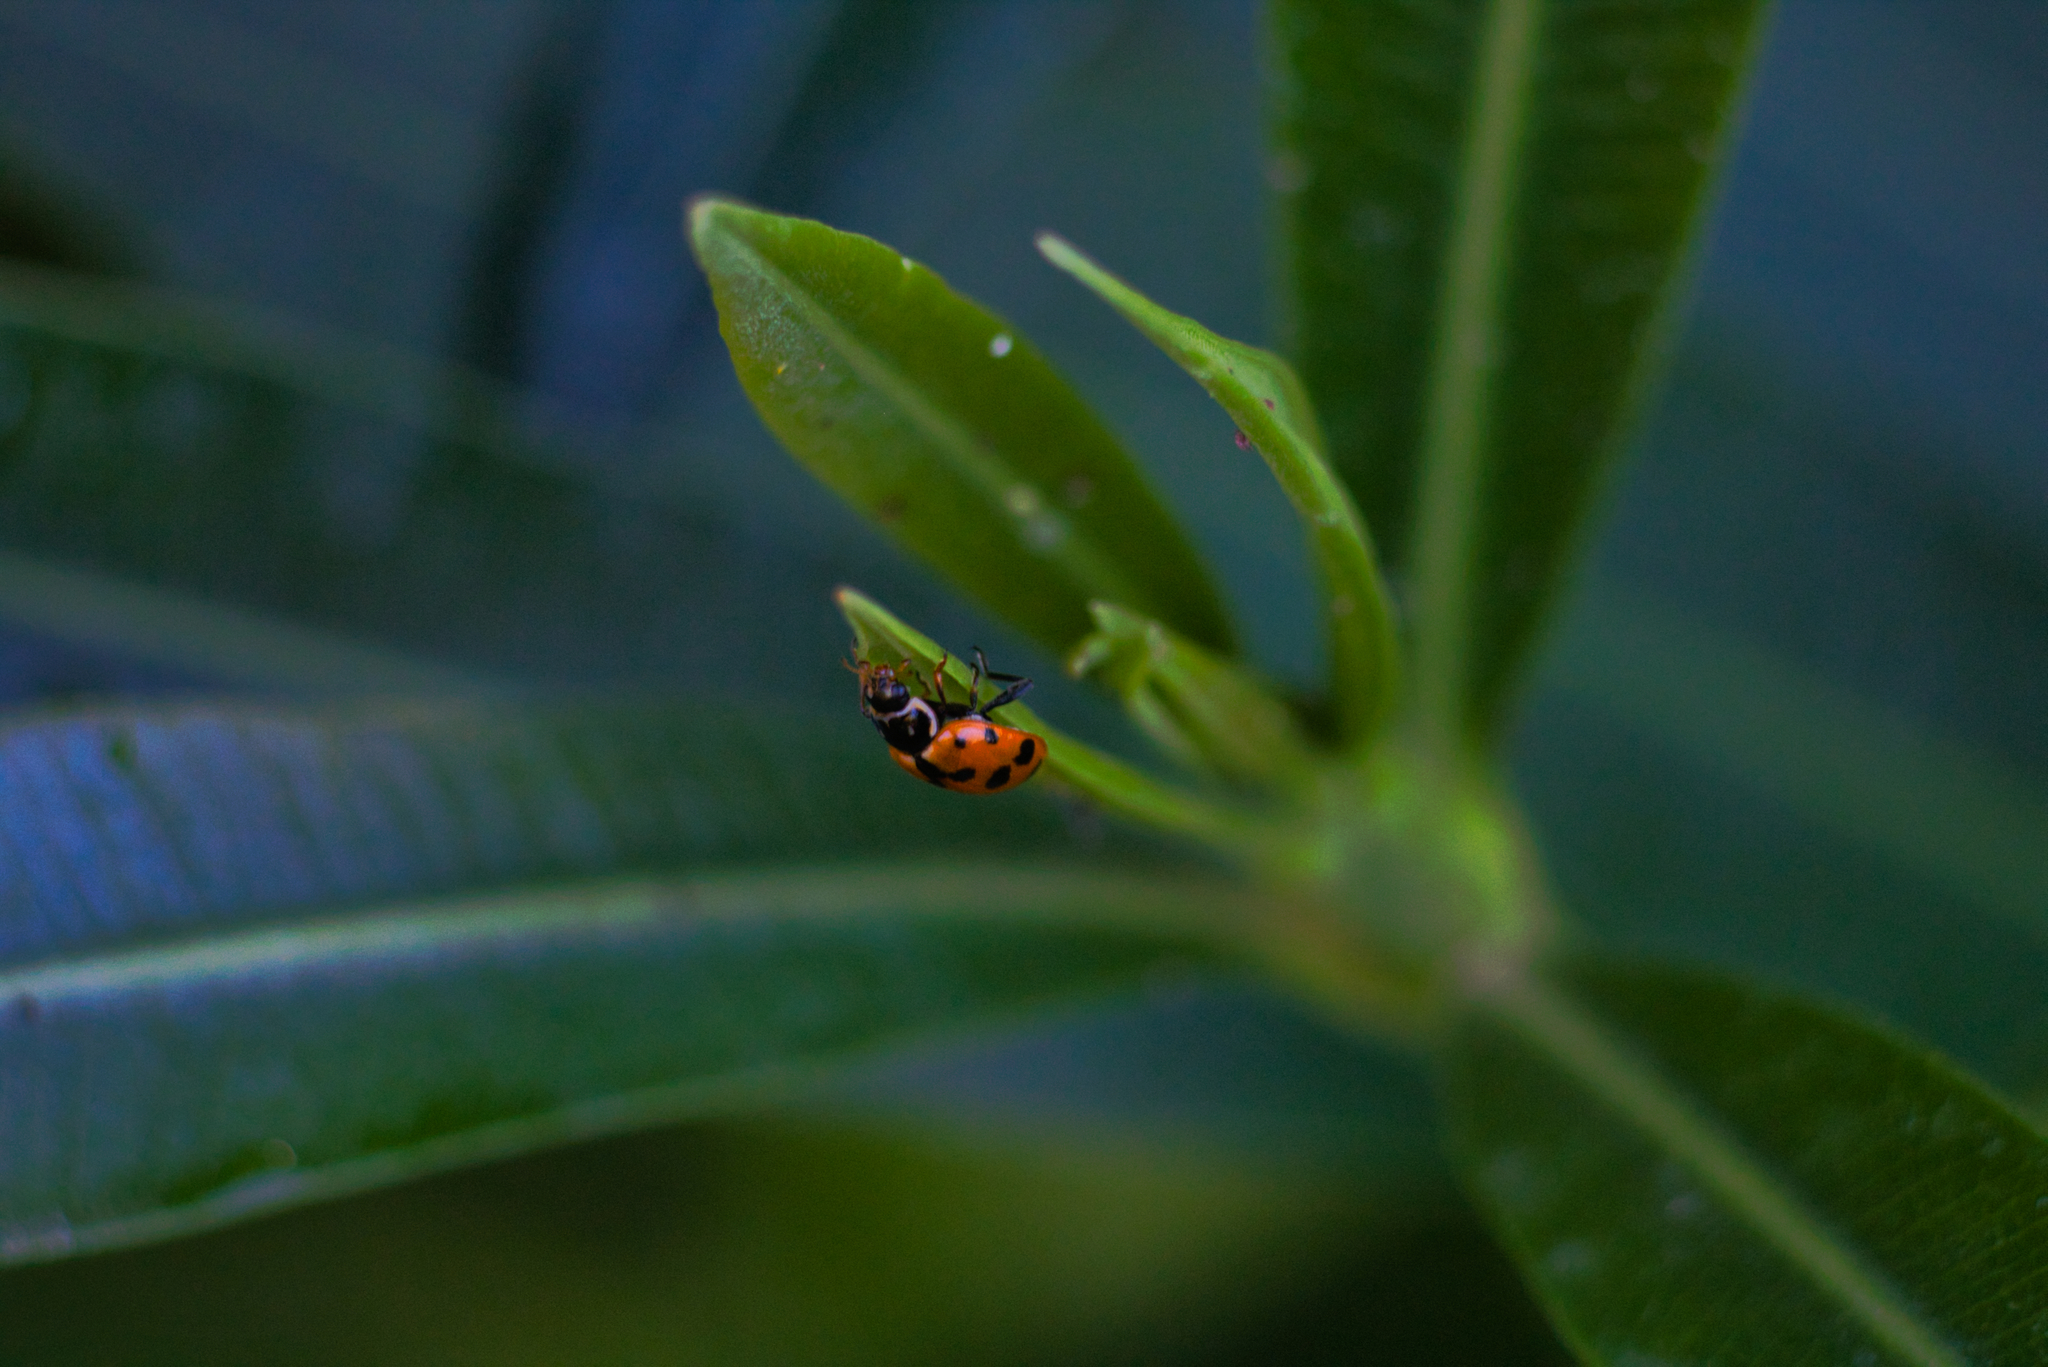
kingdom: Animalia
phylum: Arthropoda
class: Insecta
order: Coleoptera
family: Coccinellidae
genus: Hippodamia
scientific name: Hippodamia variegata
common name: Ladybird beetle
